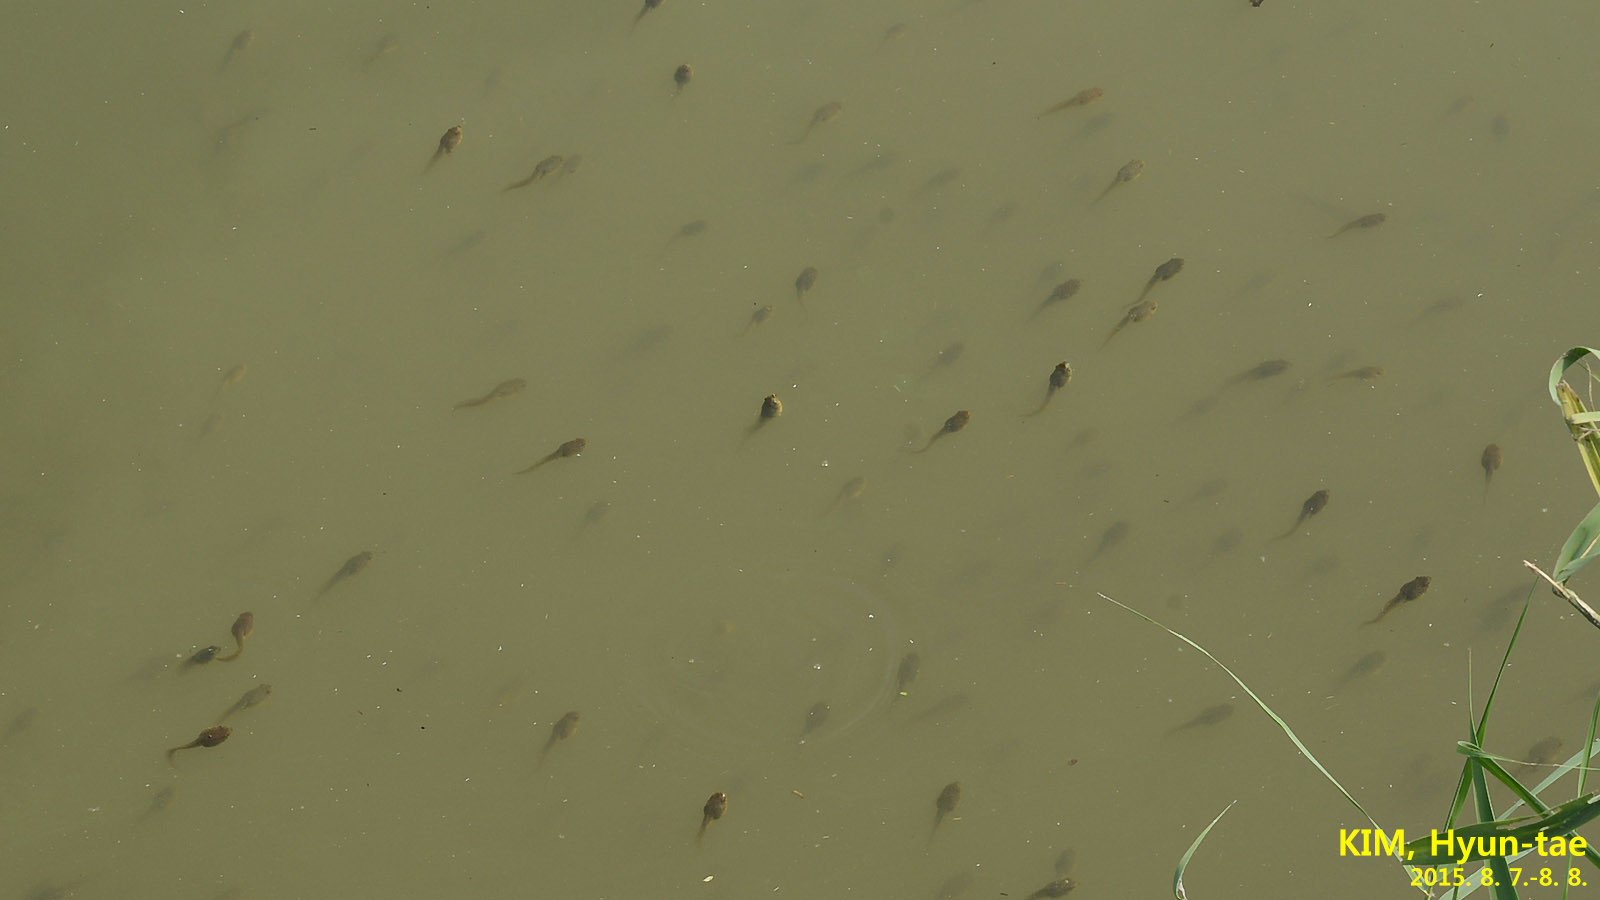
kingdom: Animalia
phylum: Chordata
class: Amphibia
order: Anura
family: Ranidae
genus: Lithobates
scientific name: Lithobates catesbeianus
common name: American bullfrog
